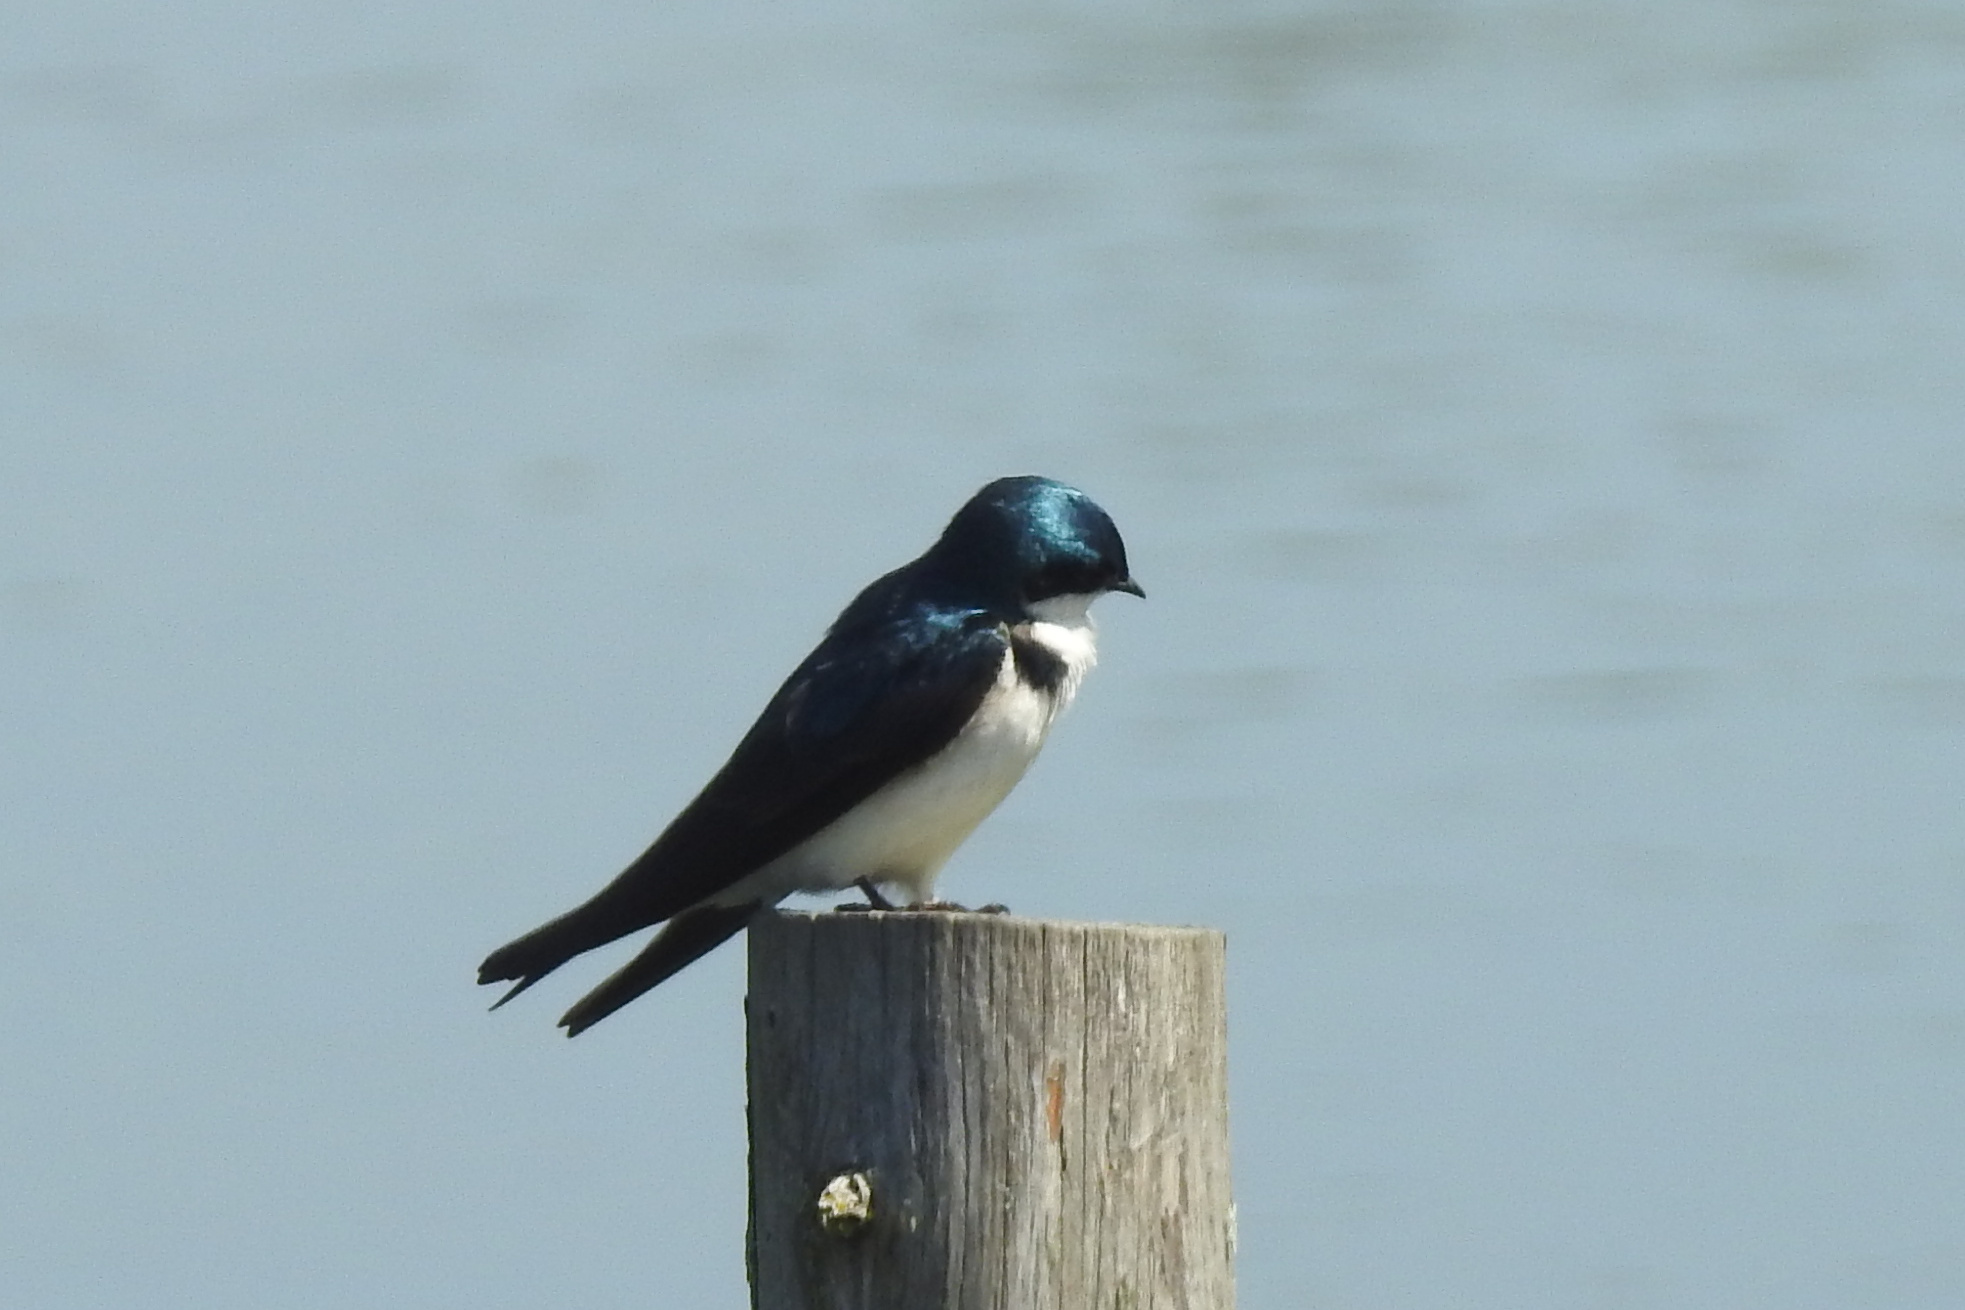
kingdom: Animalia
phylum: Chordata
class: Aves
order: Passeriformes
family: Hirundinidae
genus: Tachycineta
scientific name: Tachycineta bicolor
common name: Tree swallow
